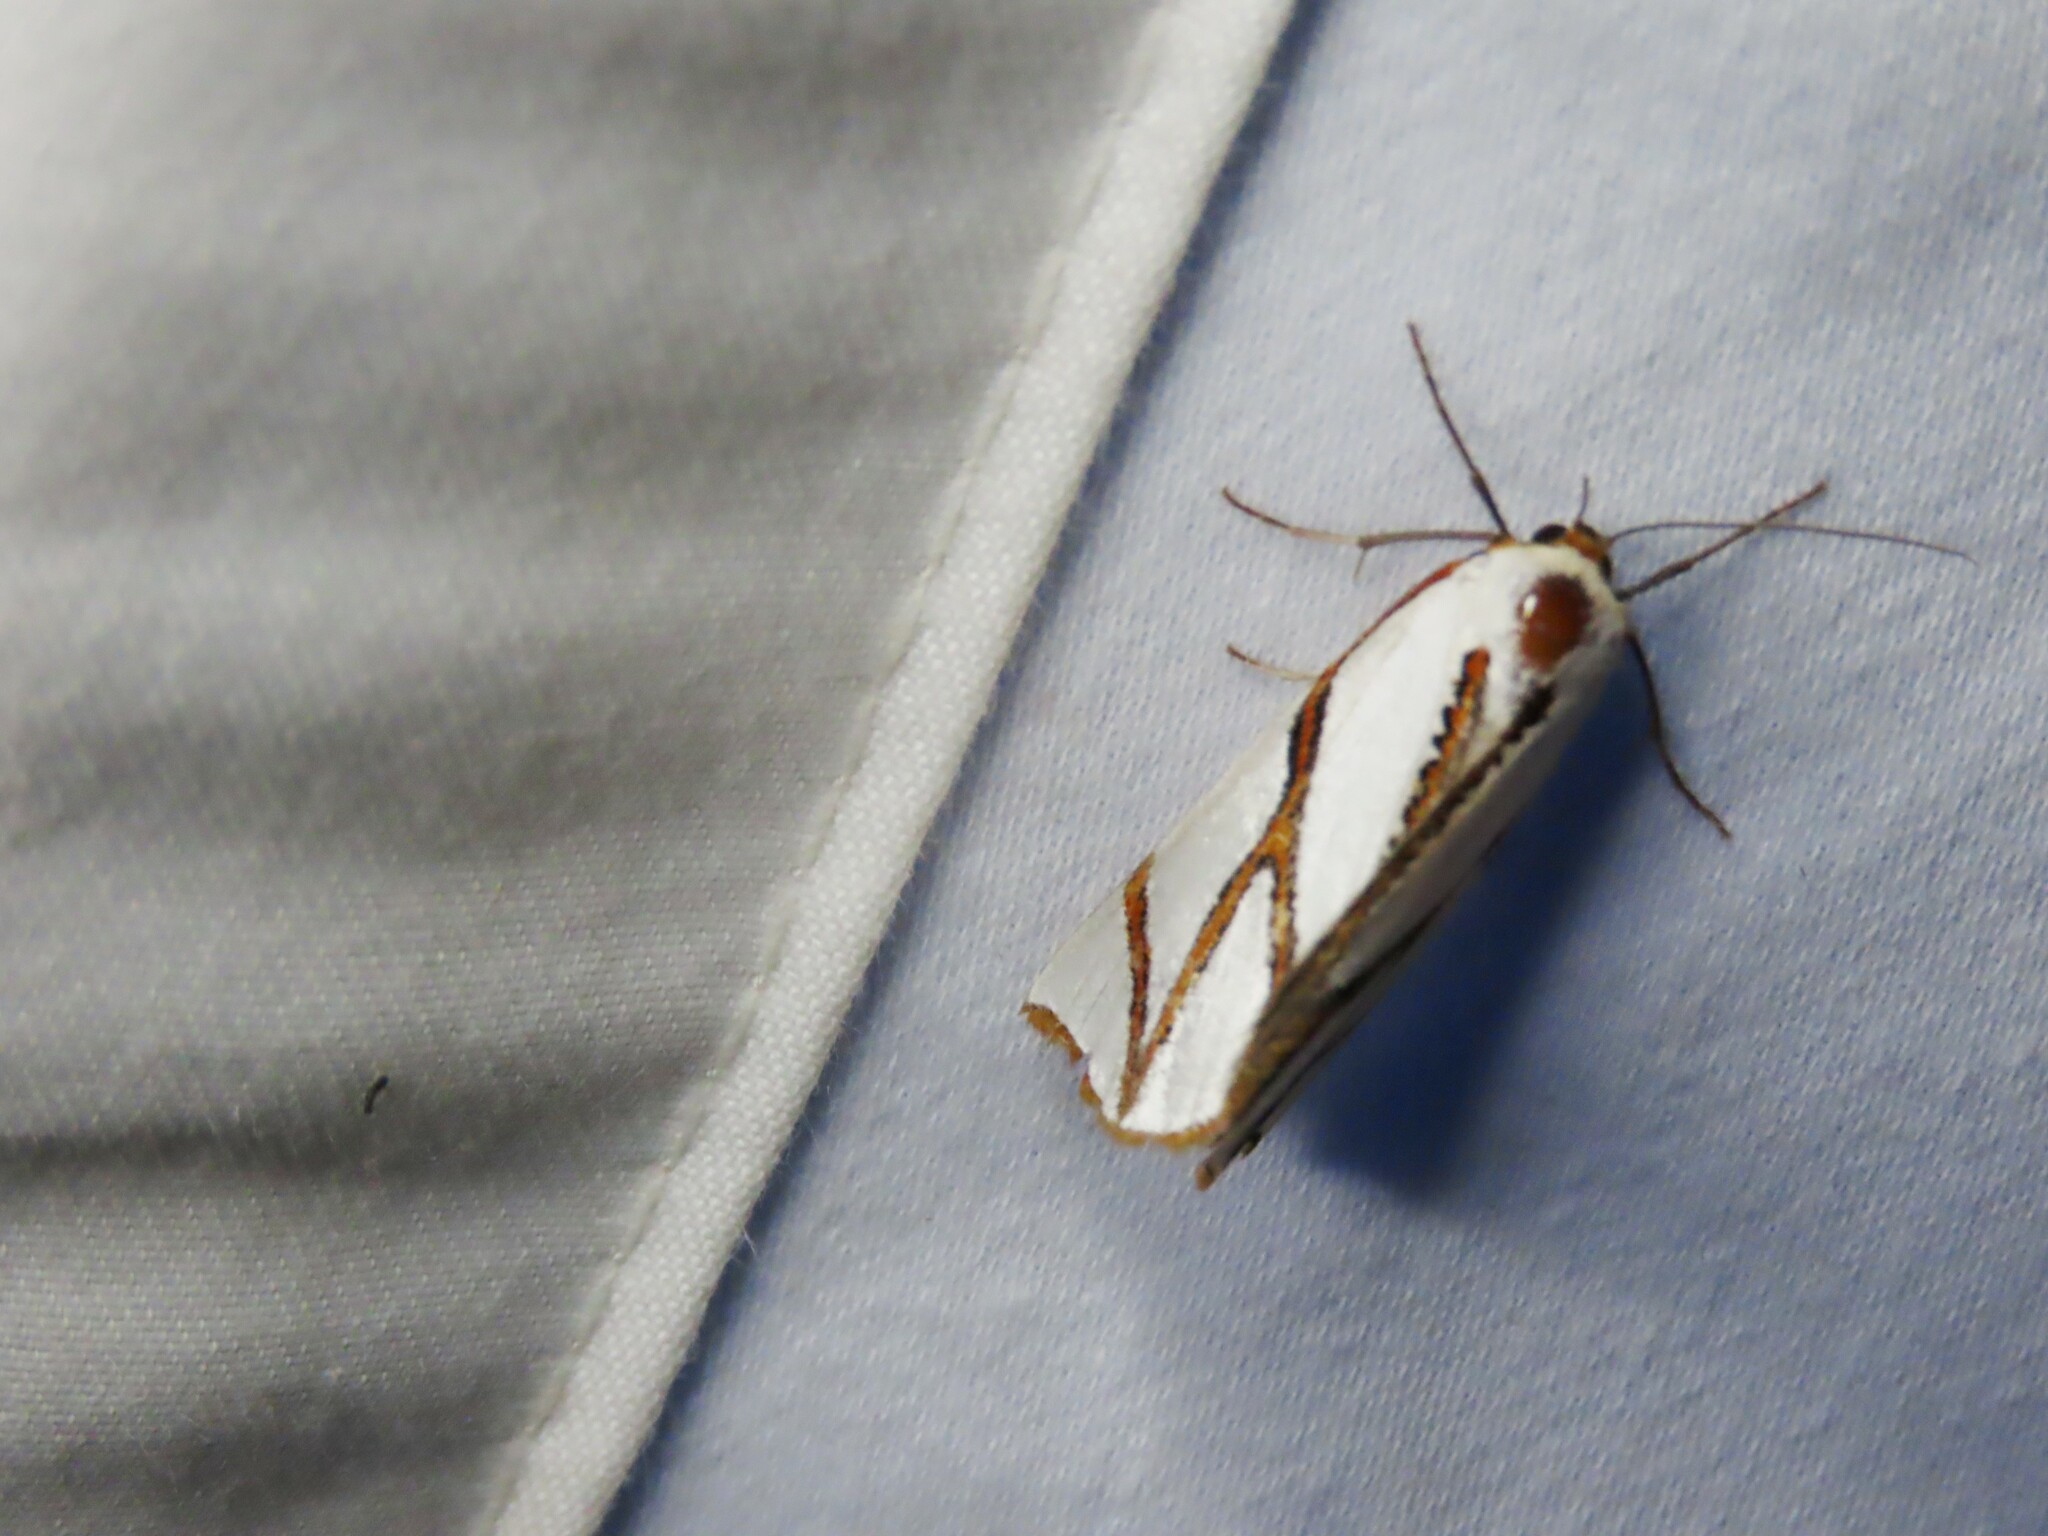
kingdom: Animalia
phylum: Arthropoda
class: Insecta
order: Lepidoptera
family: Geometridae
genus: Thalaina
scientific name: Thalaina clara
